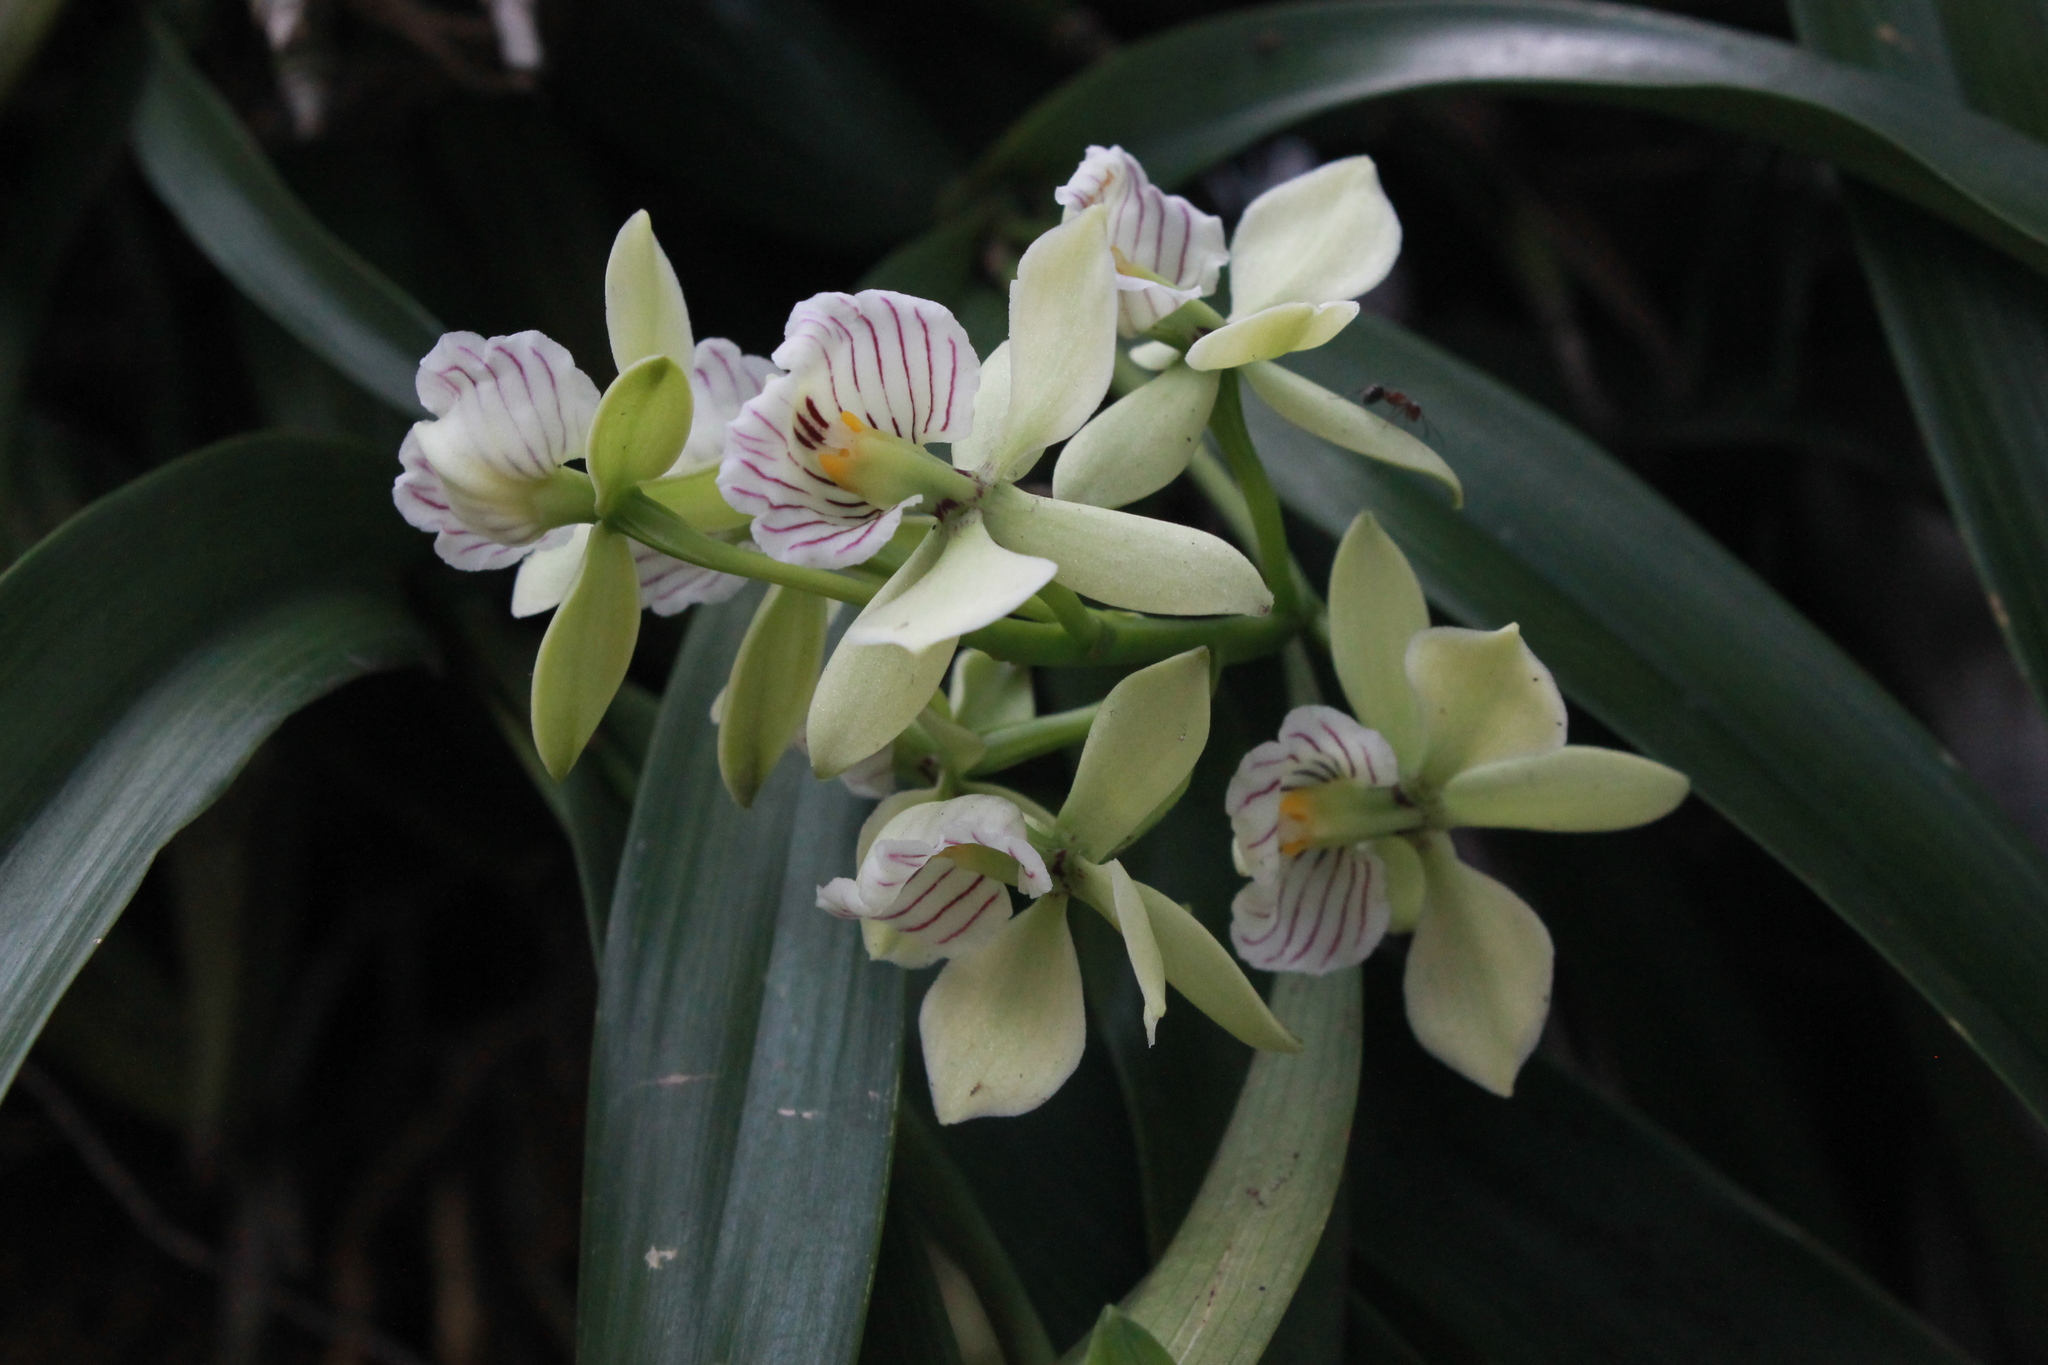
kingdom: Plantae
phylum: Tracheophyta
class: Liliopsida
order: Asparagales
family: Orchidaceae
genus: Prosthechea
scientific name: Prosthechea radiata
